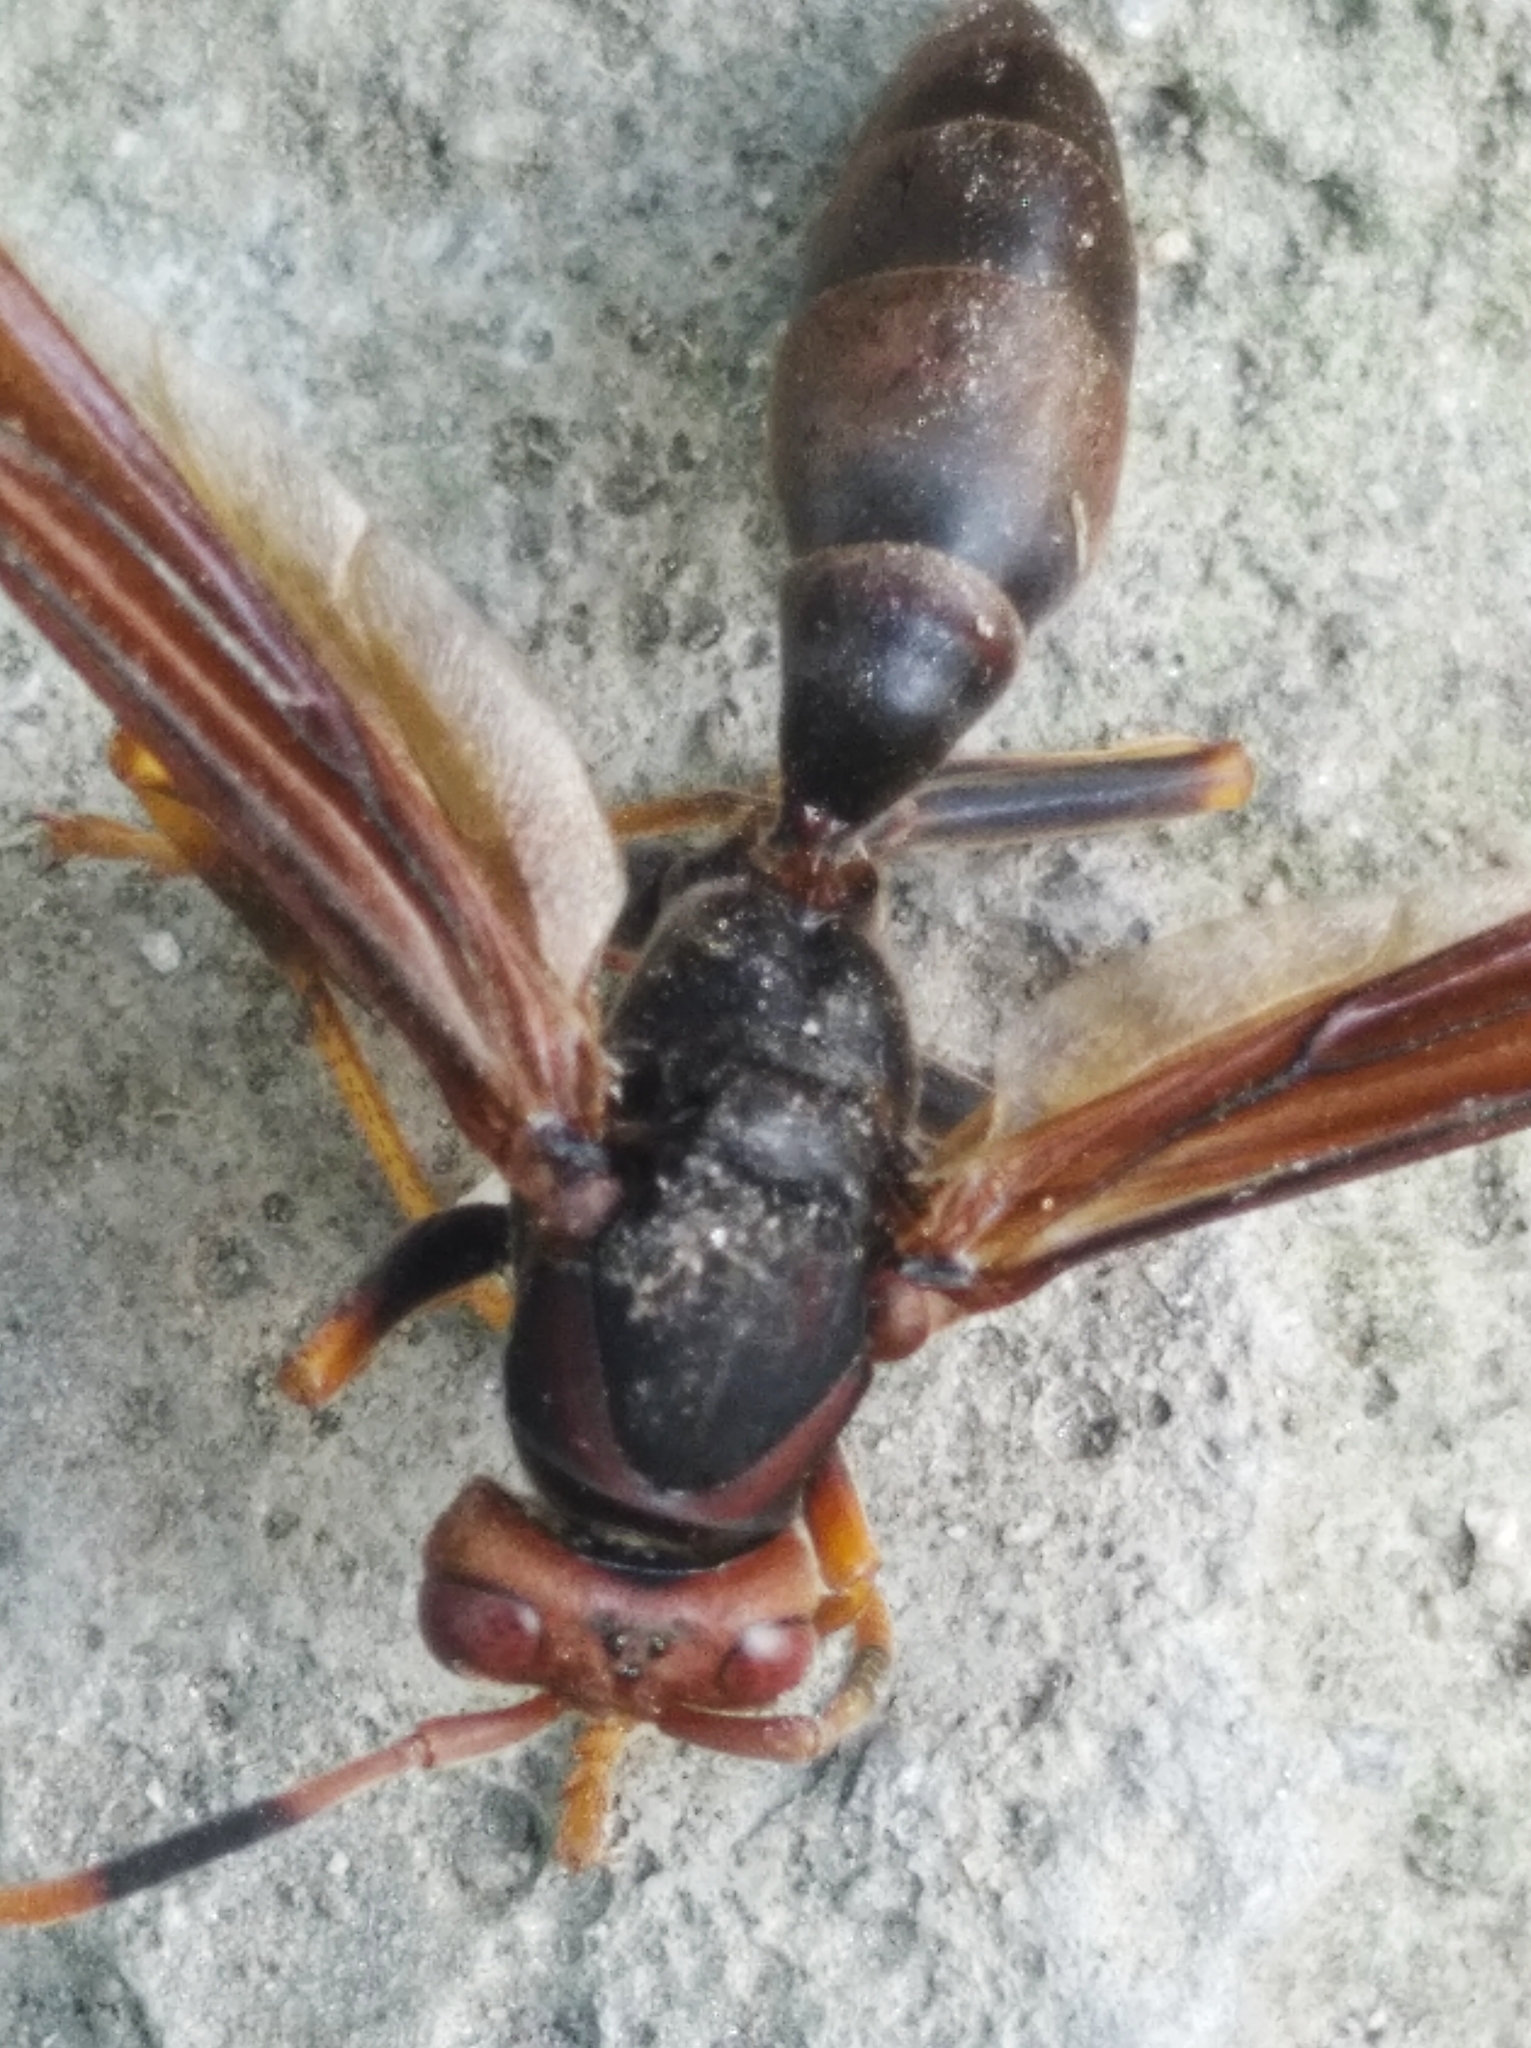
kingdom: Animalia
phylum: Arthropoda
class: Insecta
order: Hymenoptera
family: Eumenidae
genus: Polistes
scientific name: Polistes erythrocephalus
